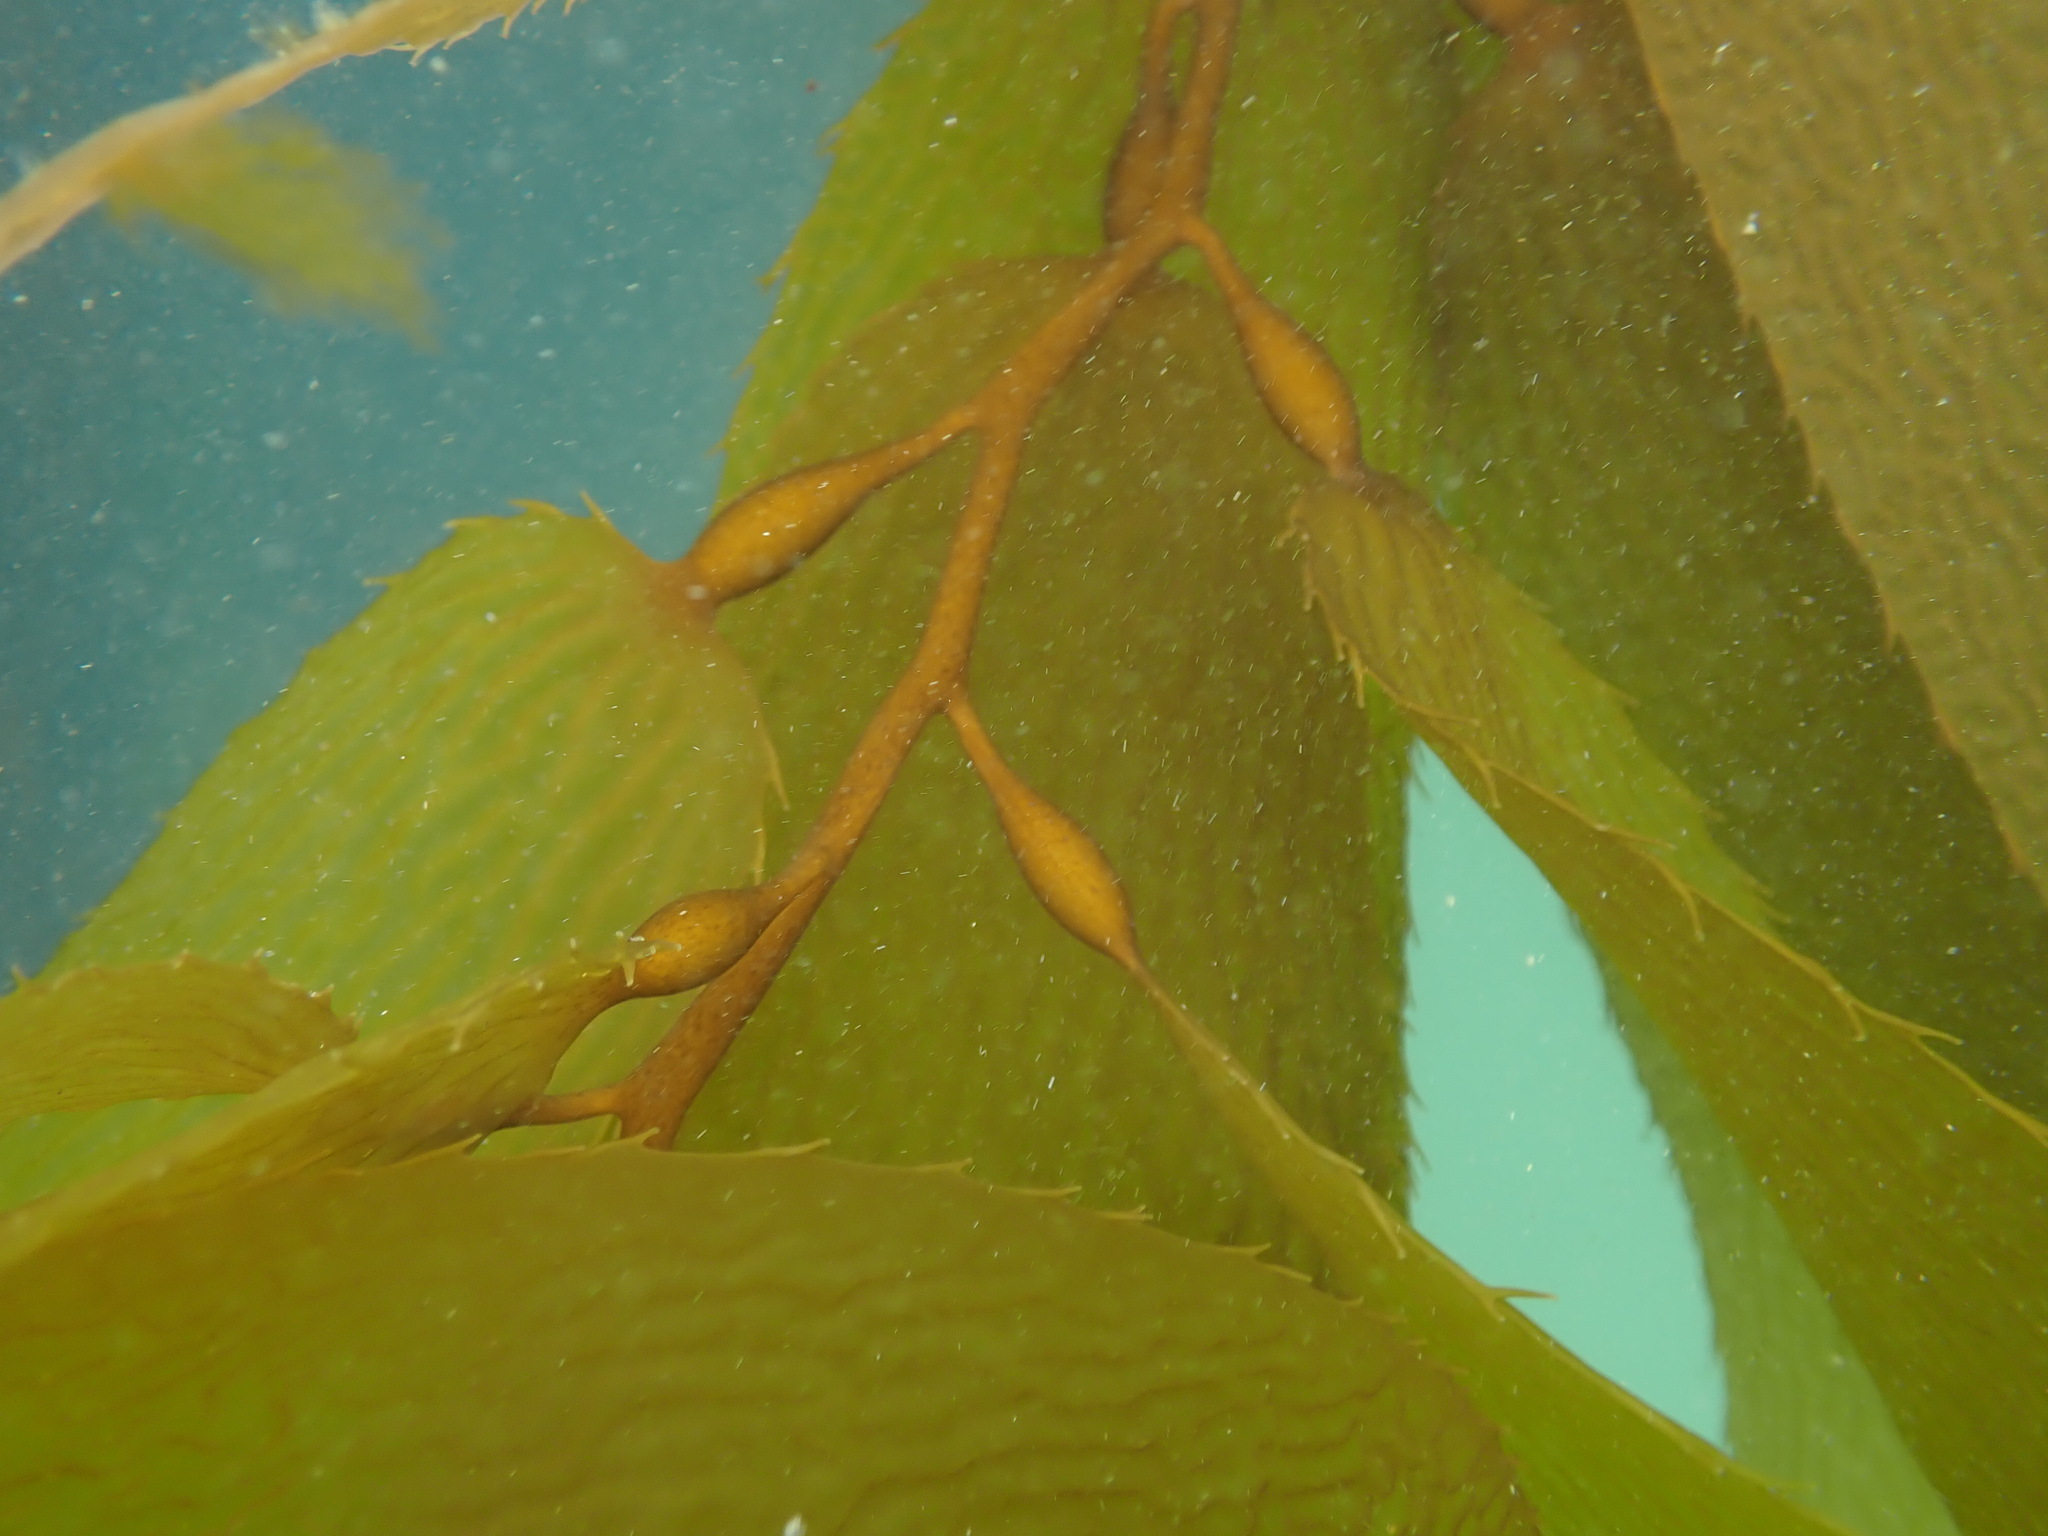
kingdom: Chromista
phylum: Ochrophyta
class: Phaeophyceae
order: Laminariales
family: Laminariaceae
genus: Macrocystis
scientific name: Macrocystis pyrifera
